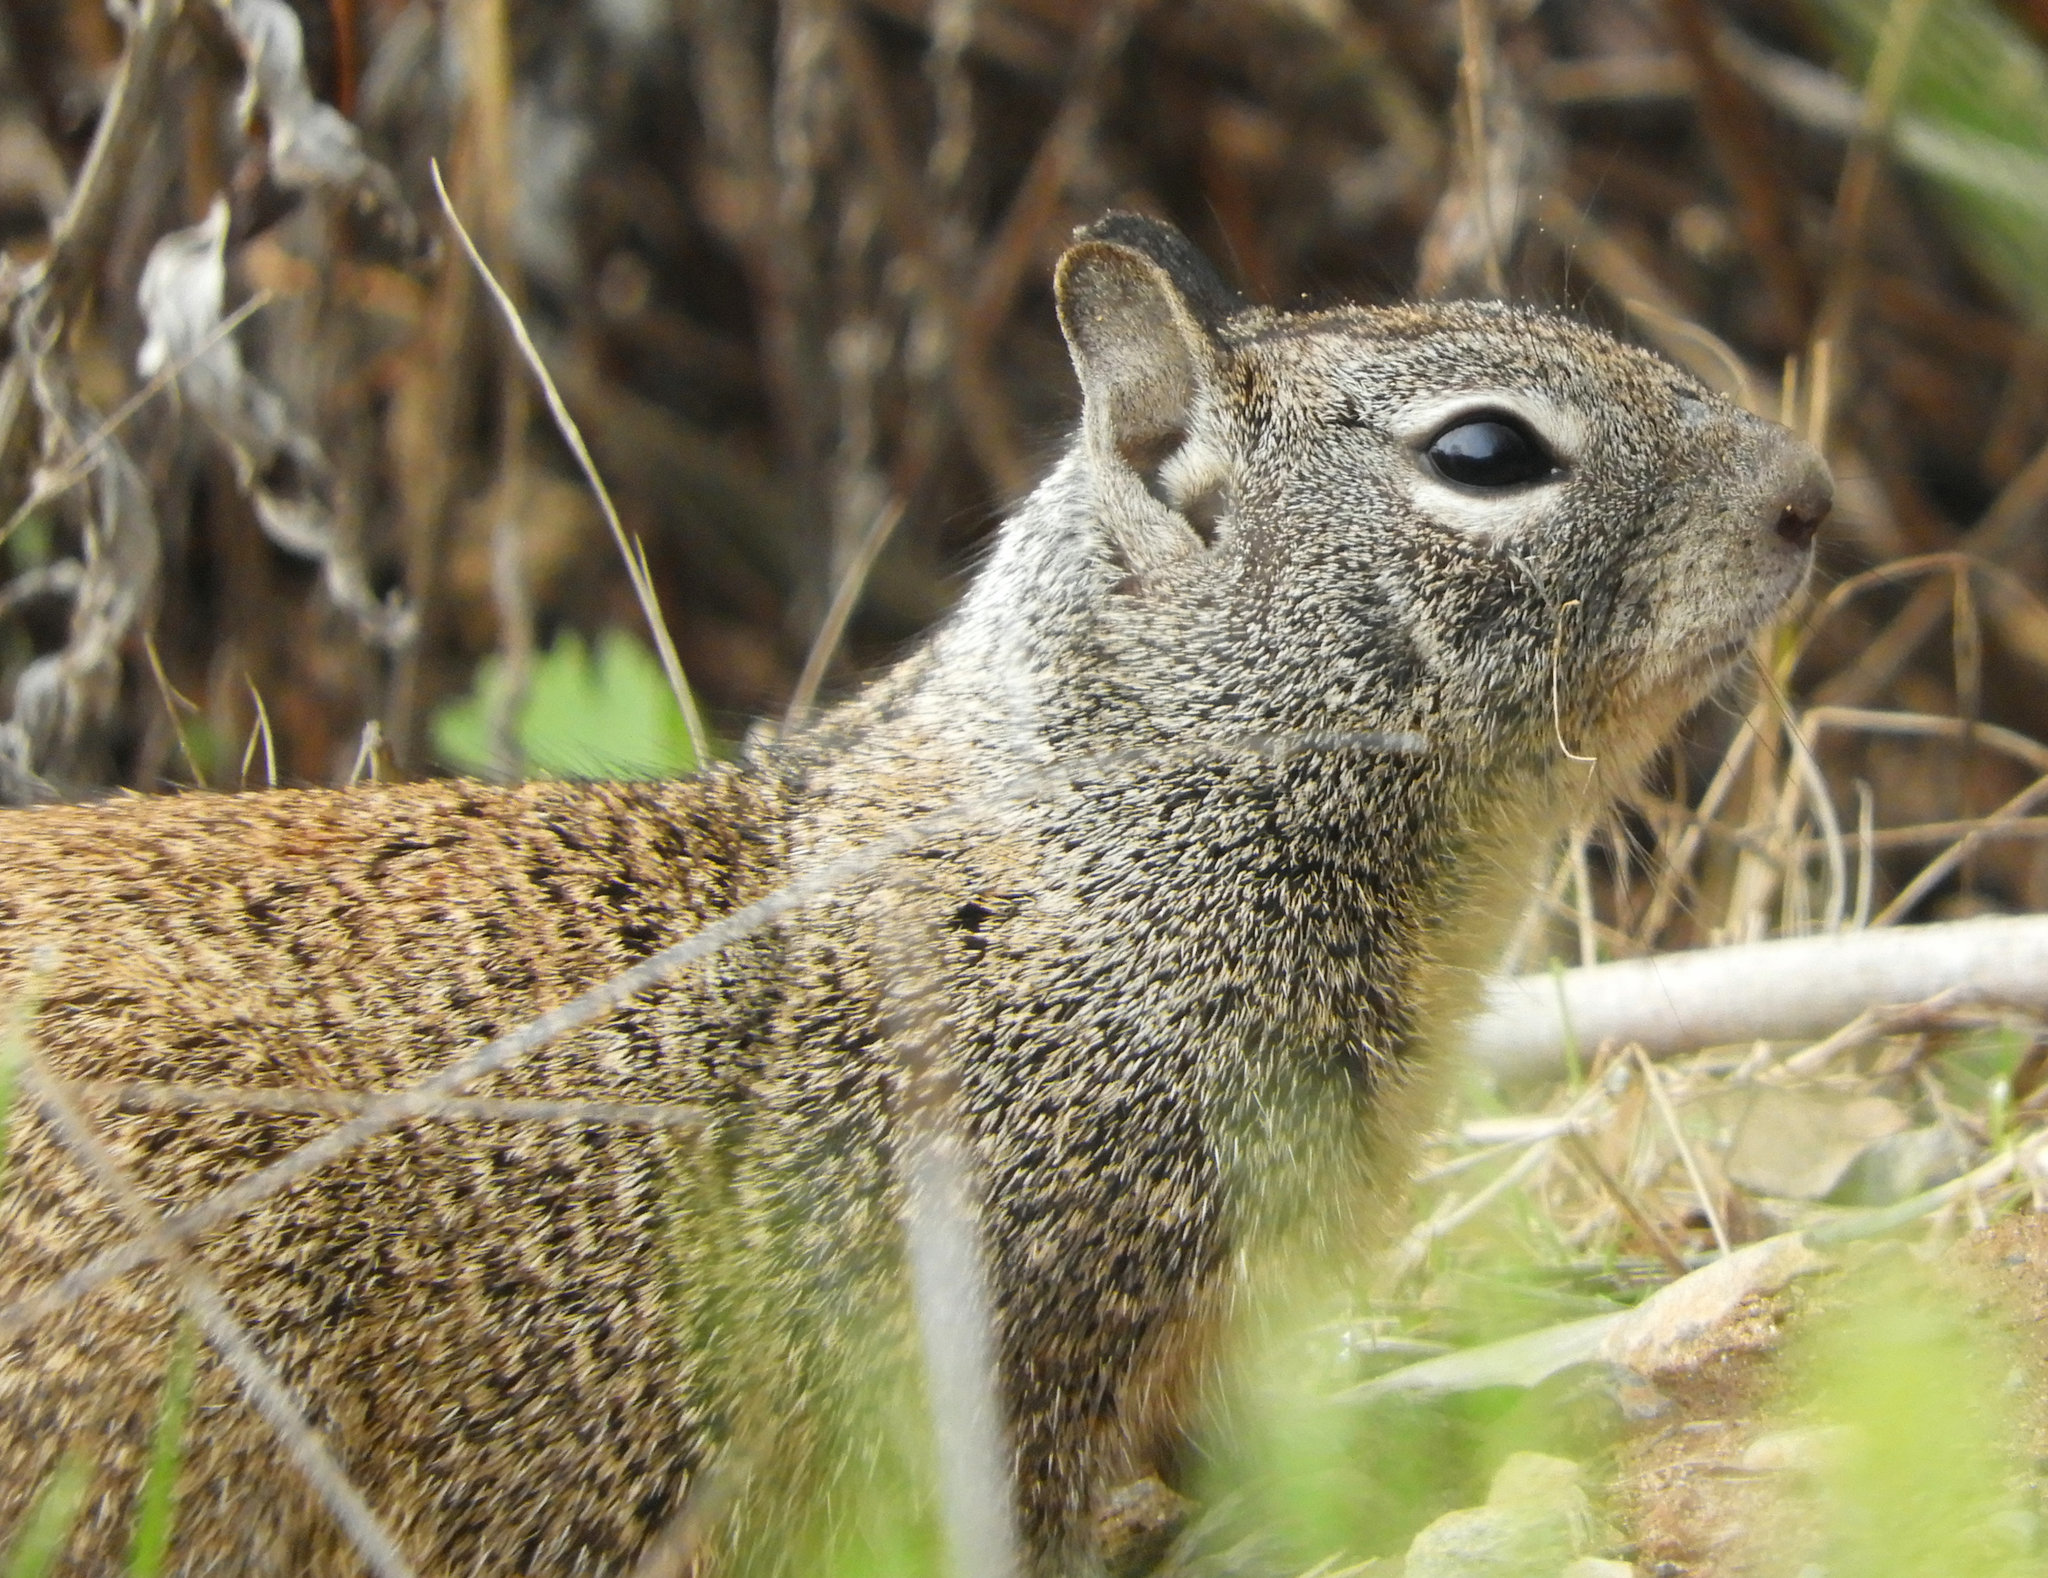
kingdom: Animalia
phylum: Chordata
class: Mammalia
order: Rodentia
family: Sciuridae
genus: Otospermophilus
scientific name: Otospermophilus beecheyi
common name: California ground squirrel
